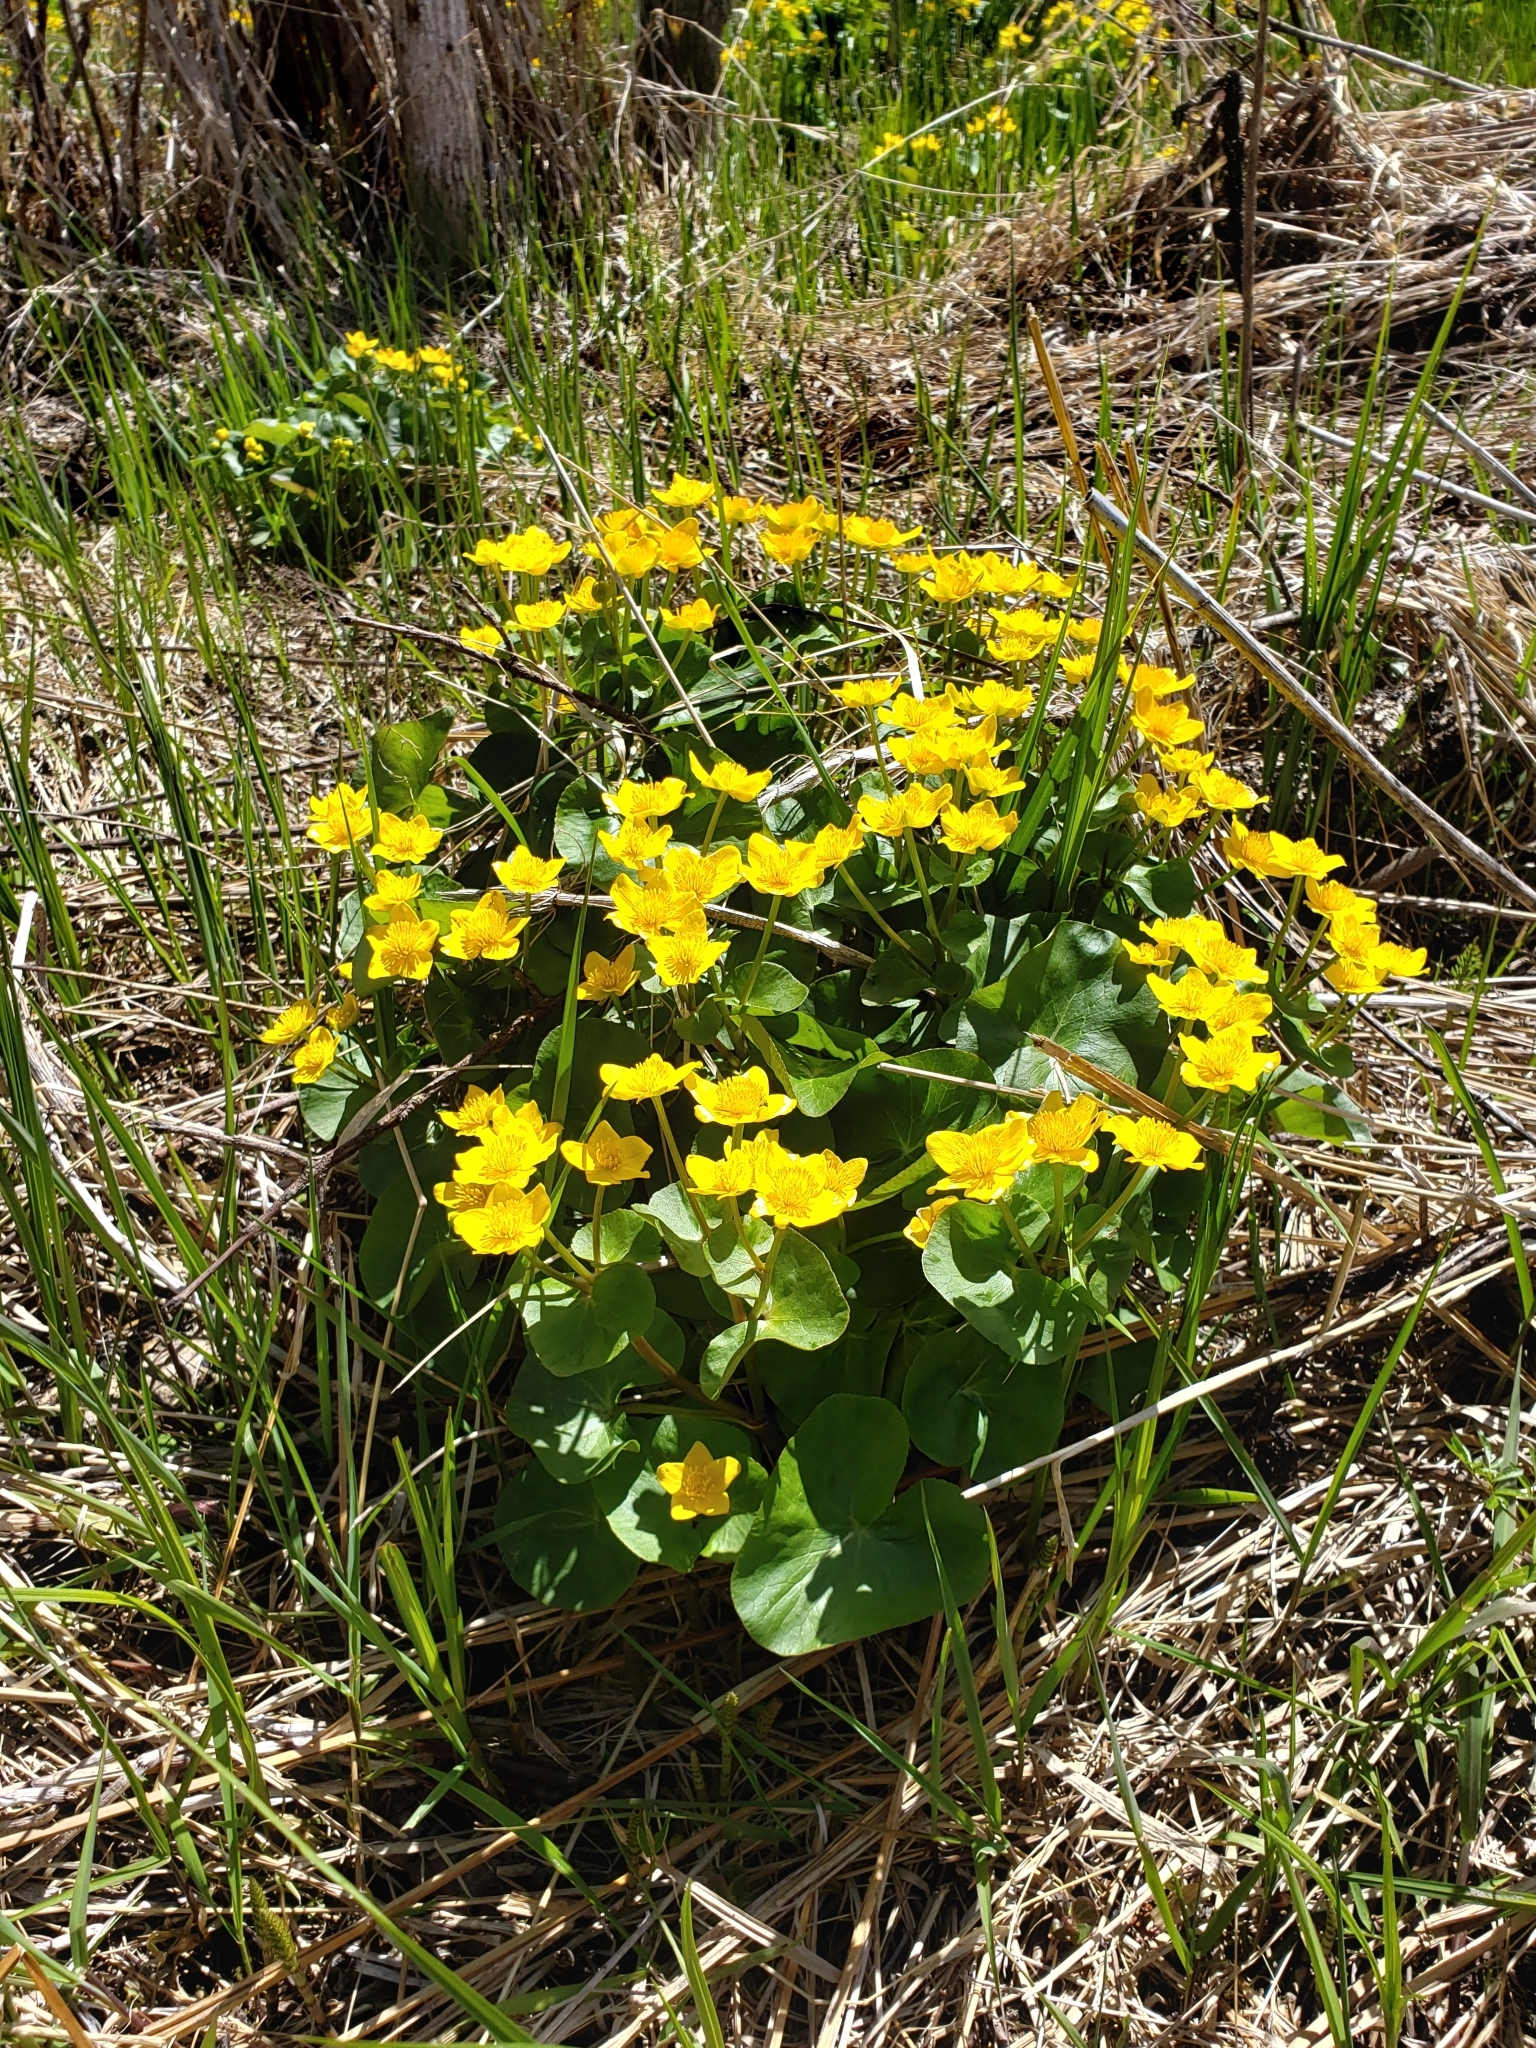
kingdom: Plantae
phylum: Tracheophyta
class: Magnoliopsida
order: Ranunculales
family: Ranunculaceae
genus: Caltha
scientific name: Caltha palustris
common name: Marsh marigold
